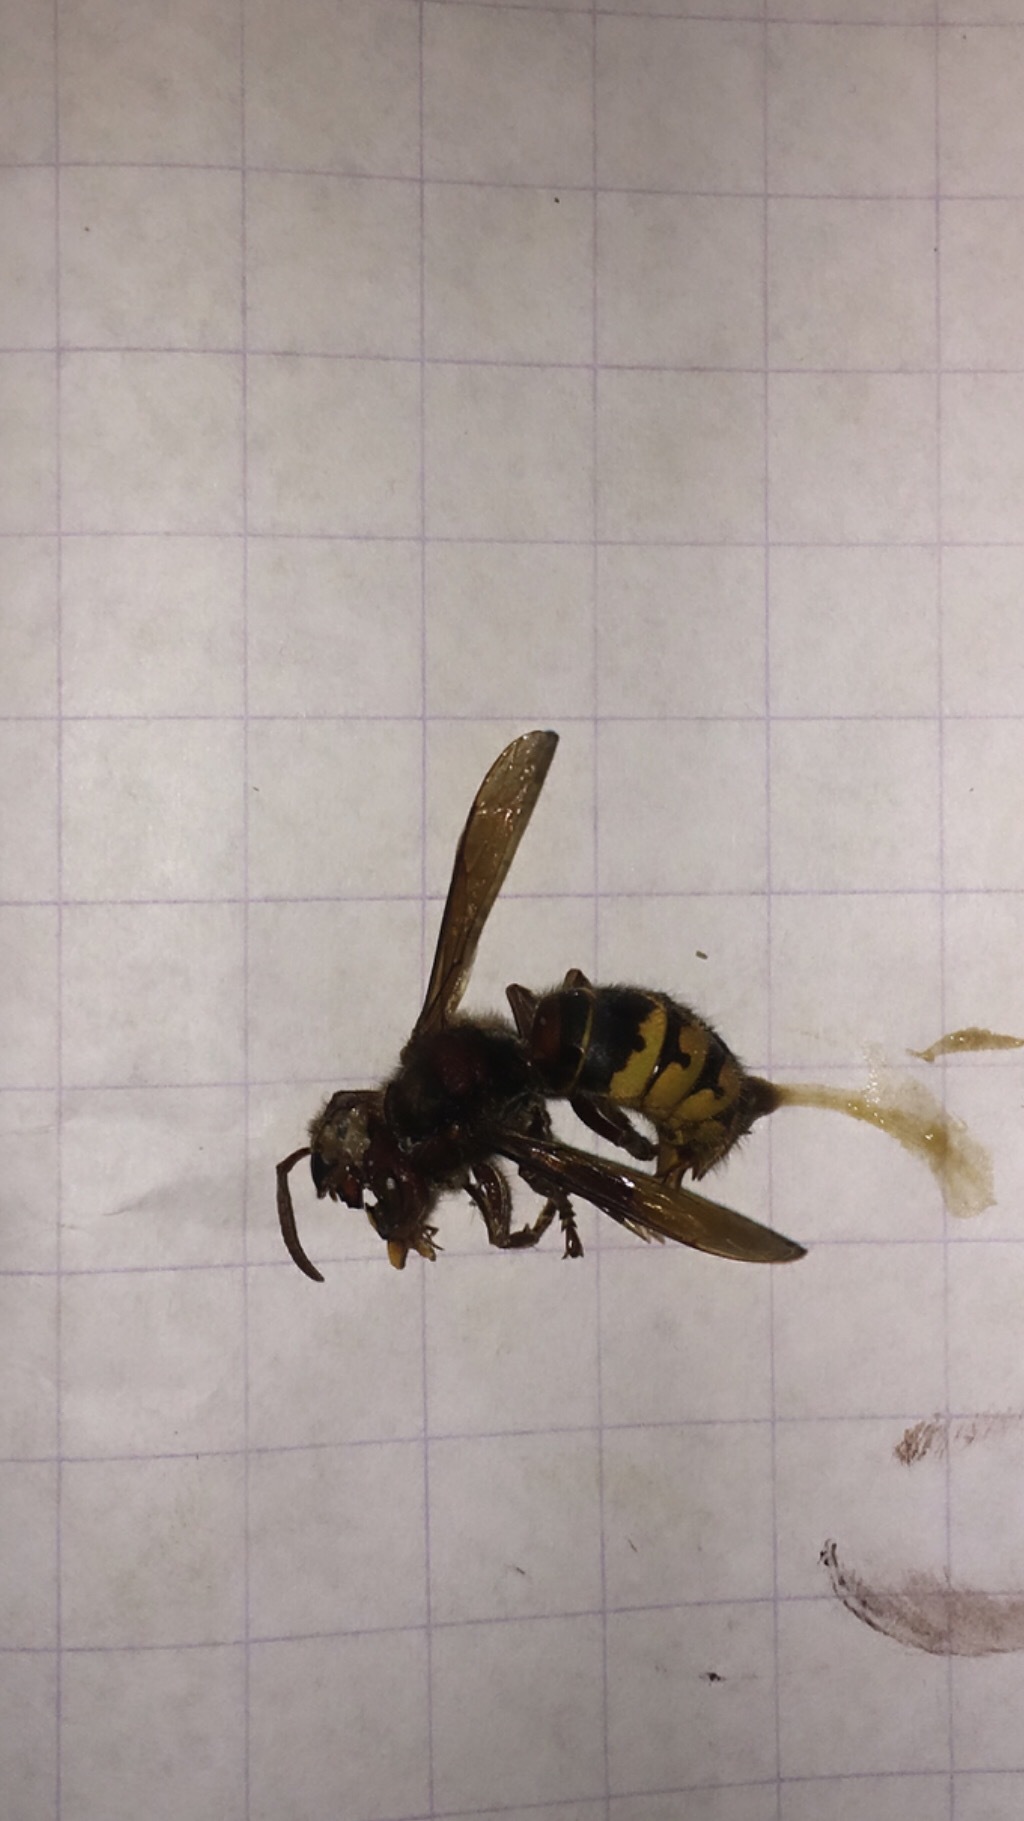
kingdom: Animalia
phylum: Arthropoda
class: Insecta
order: Hymenoptera
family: Vespidae
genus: Vespa
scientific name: Vespa crabro
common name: Hornet
